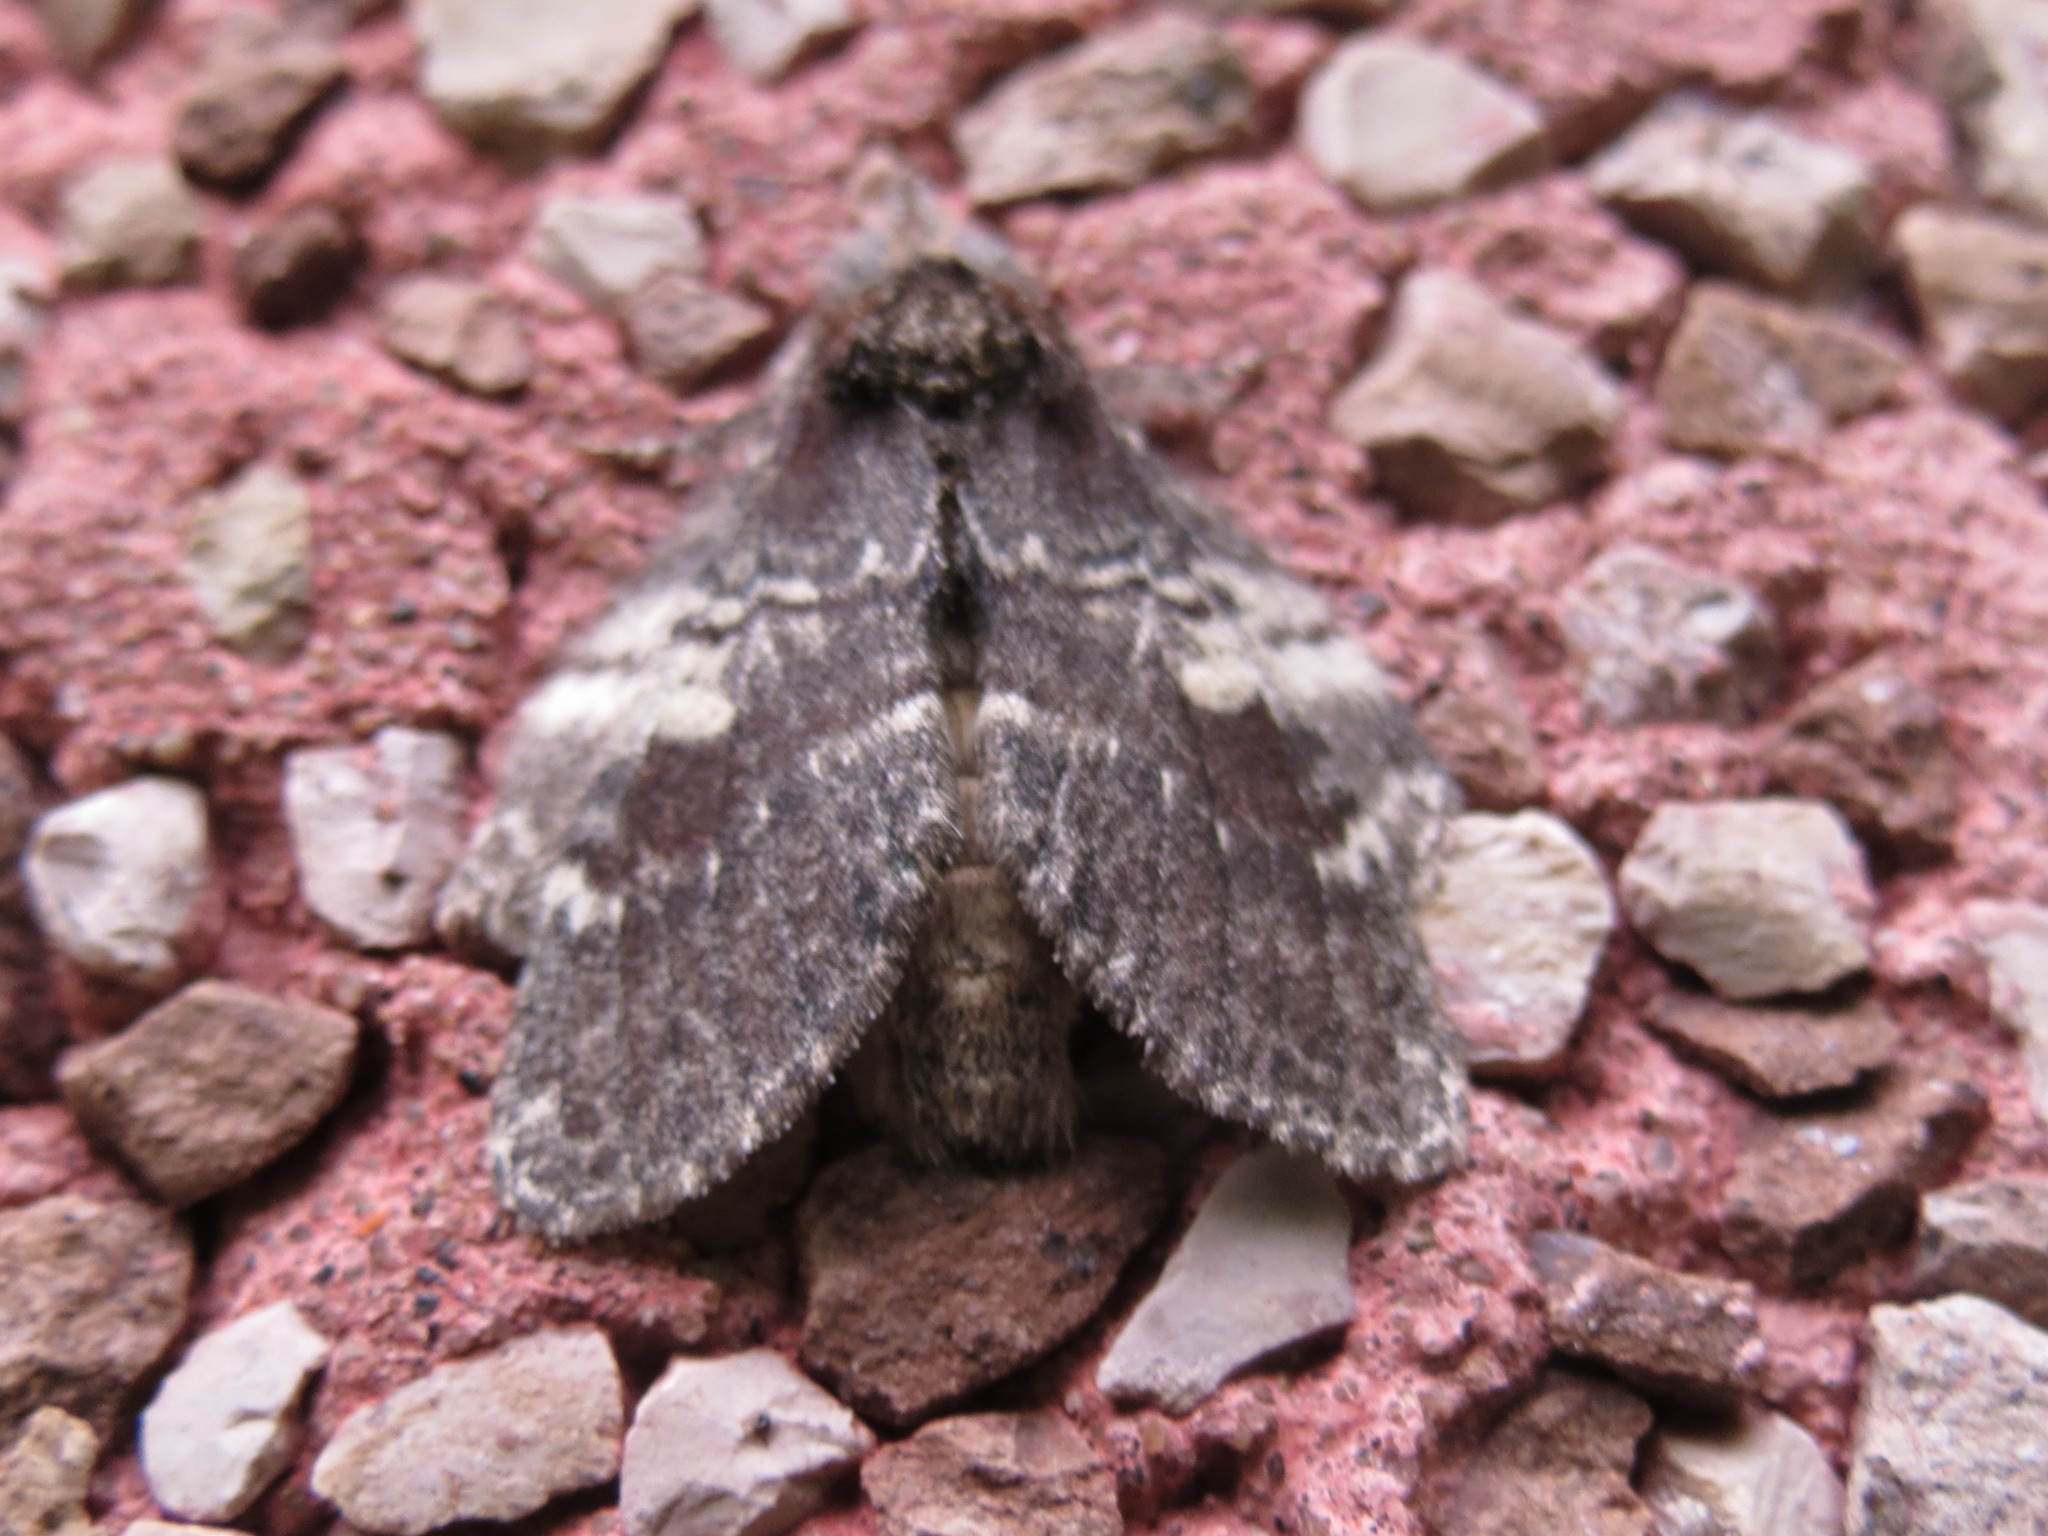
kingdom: Animalia
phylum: Arthropoda
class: Insecta
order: Lepidoptera
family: Notodontidae
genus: Peridea
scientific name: Peridea ferruginea
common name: Chocolate prominent
